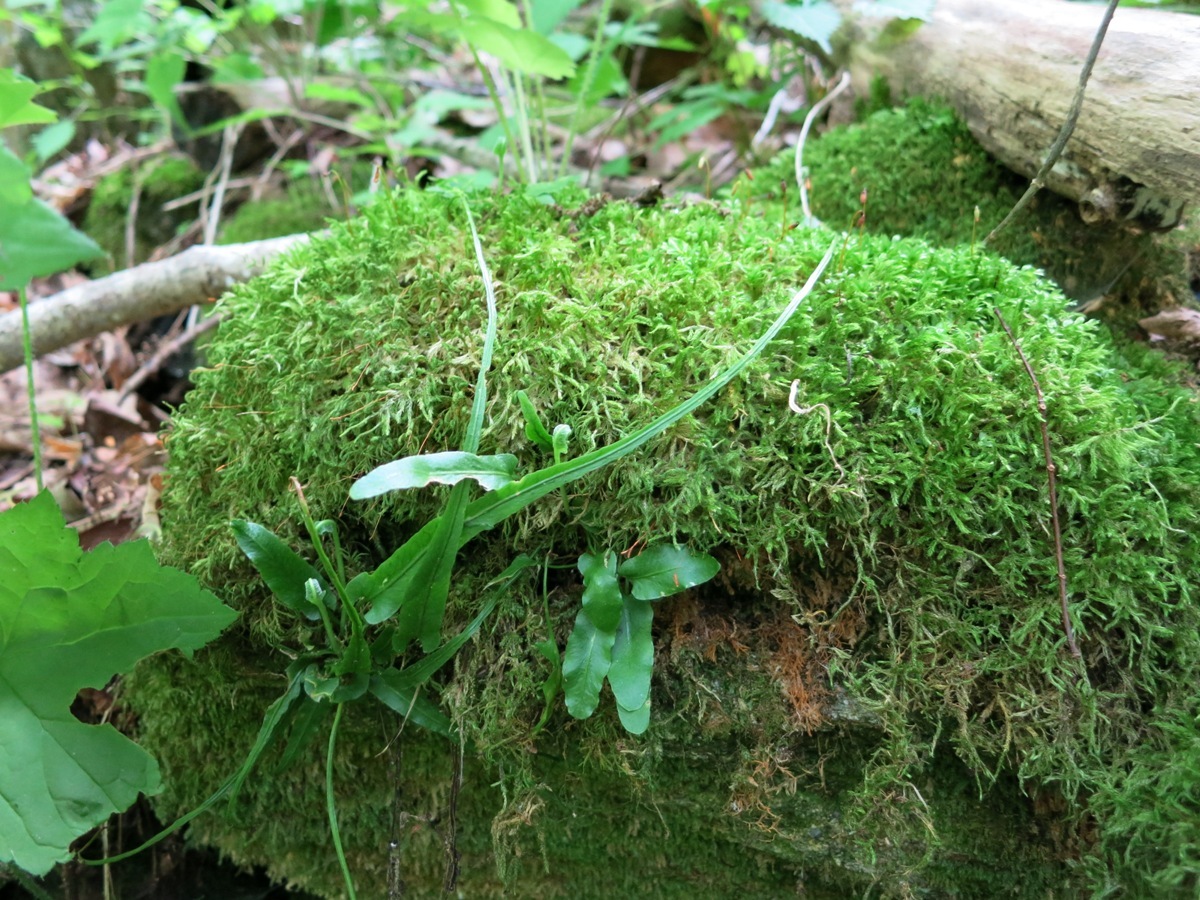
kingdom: Plantae
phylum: Tracheophyta
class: Polypodiopsida
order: Polypodiales
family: Aspleniaceae
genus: Asplenium
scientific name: Asplenium rhizophyllum
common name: Walking fern
